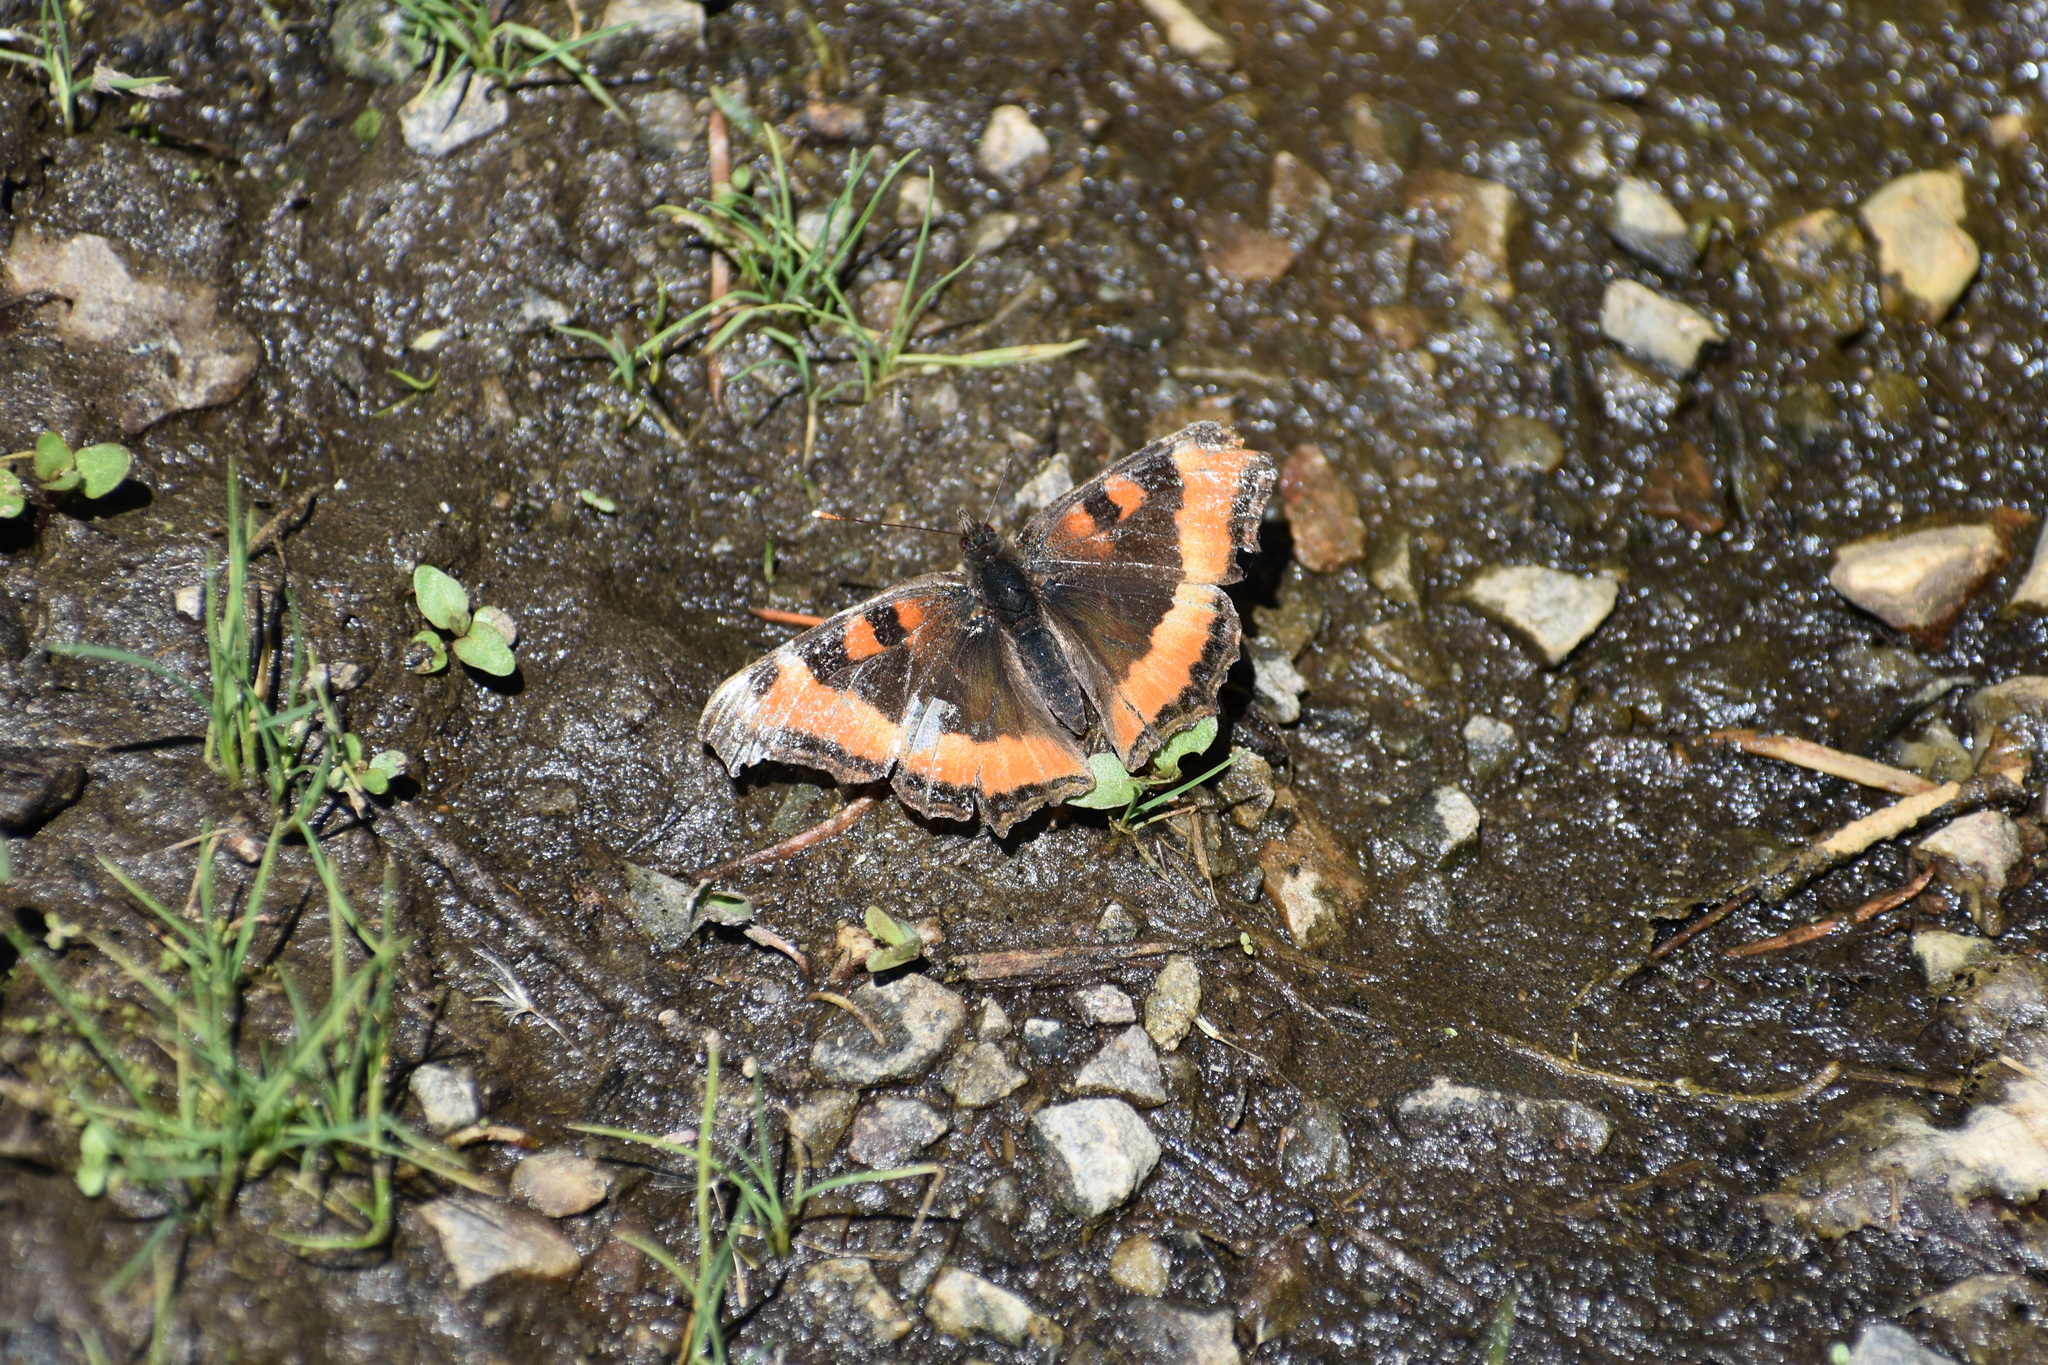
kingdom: Animalia
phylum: Arthropoda
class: Insecta
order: Lepidoptera
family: Nymphalidae
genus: Aglais
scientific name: Aglais milberti
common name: Milbert's tortoiseshell
